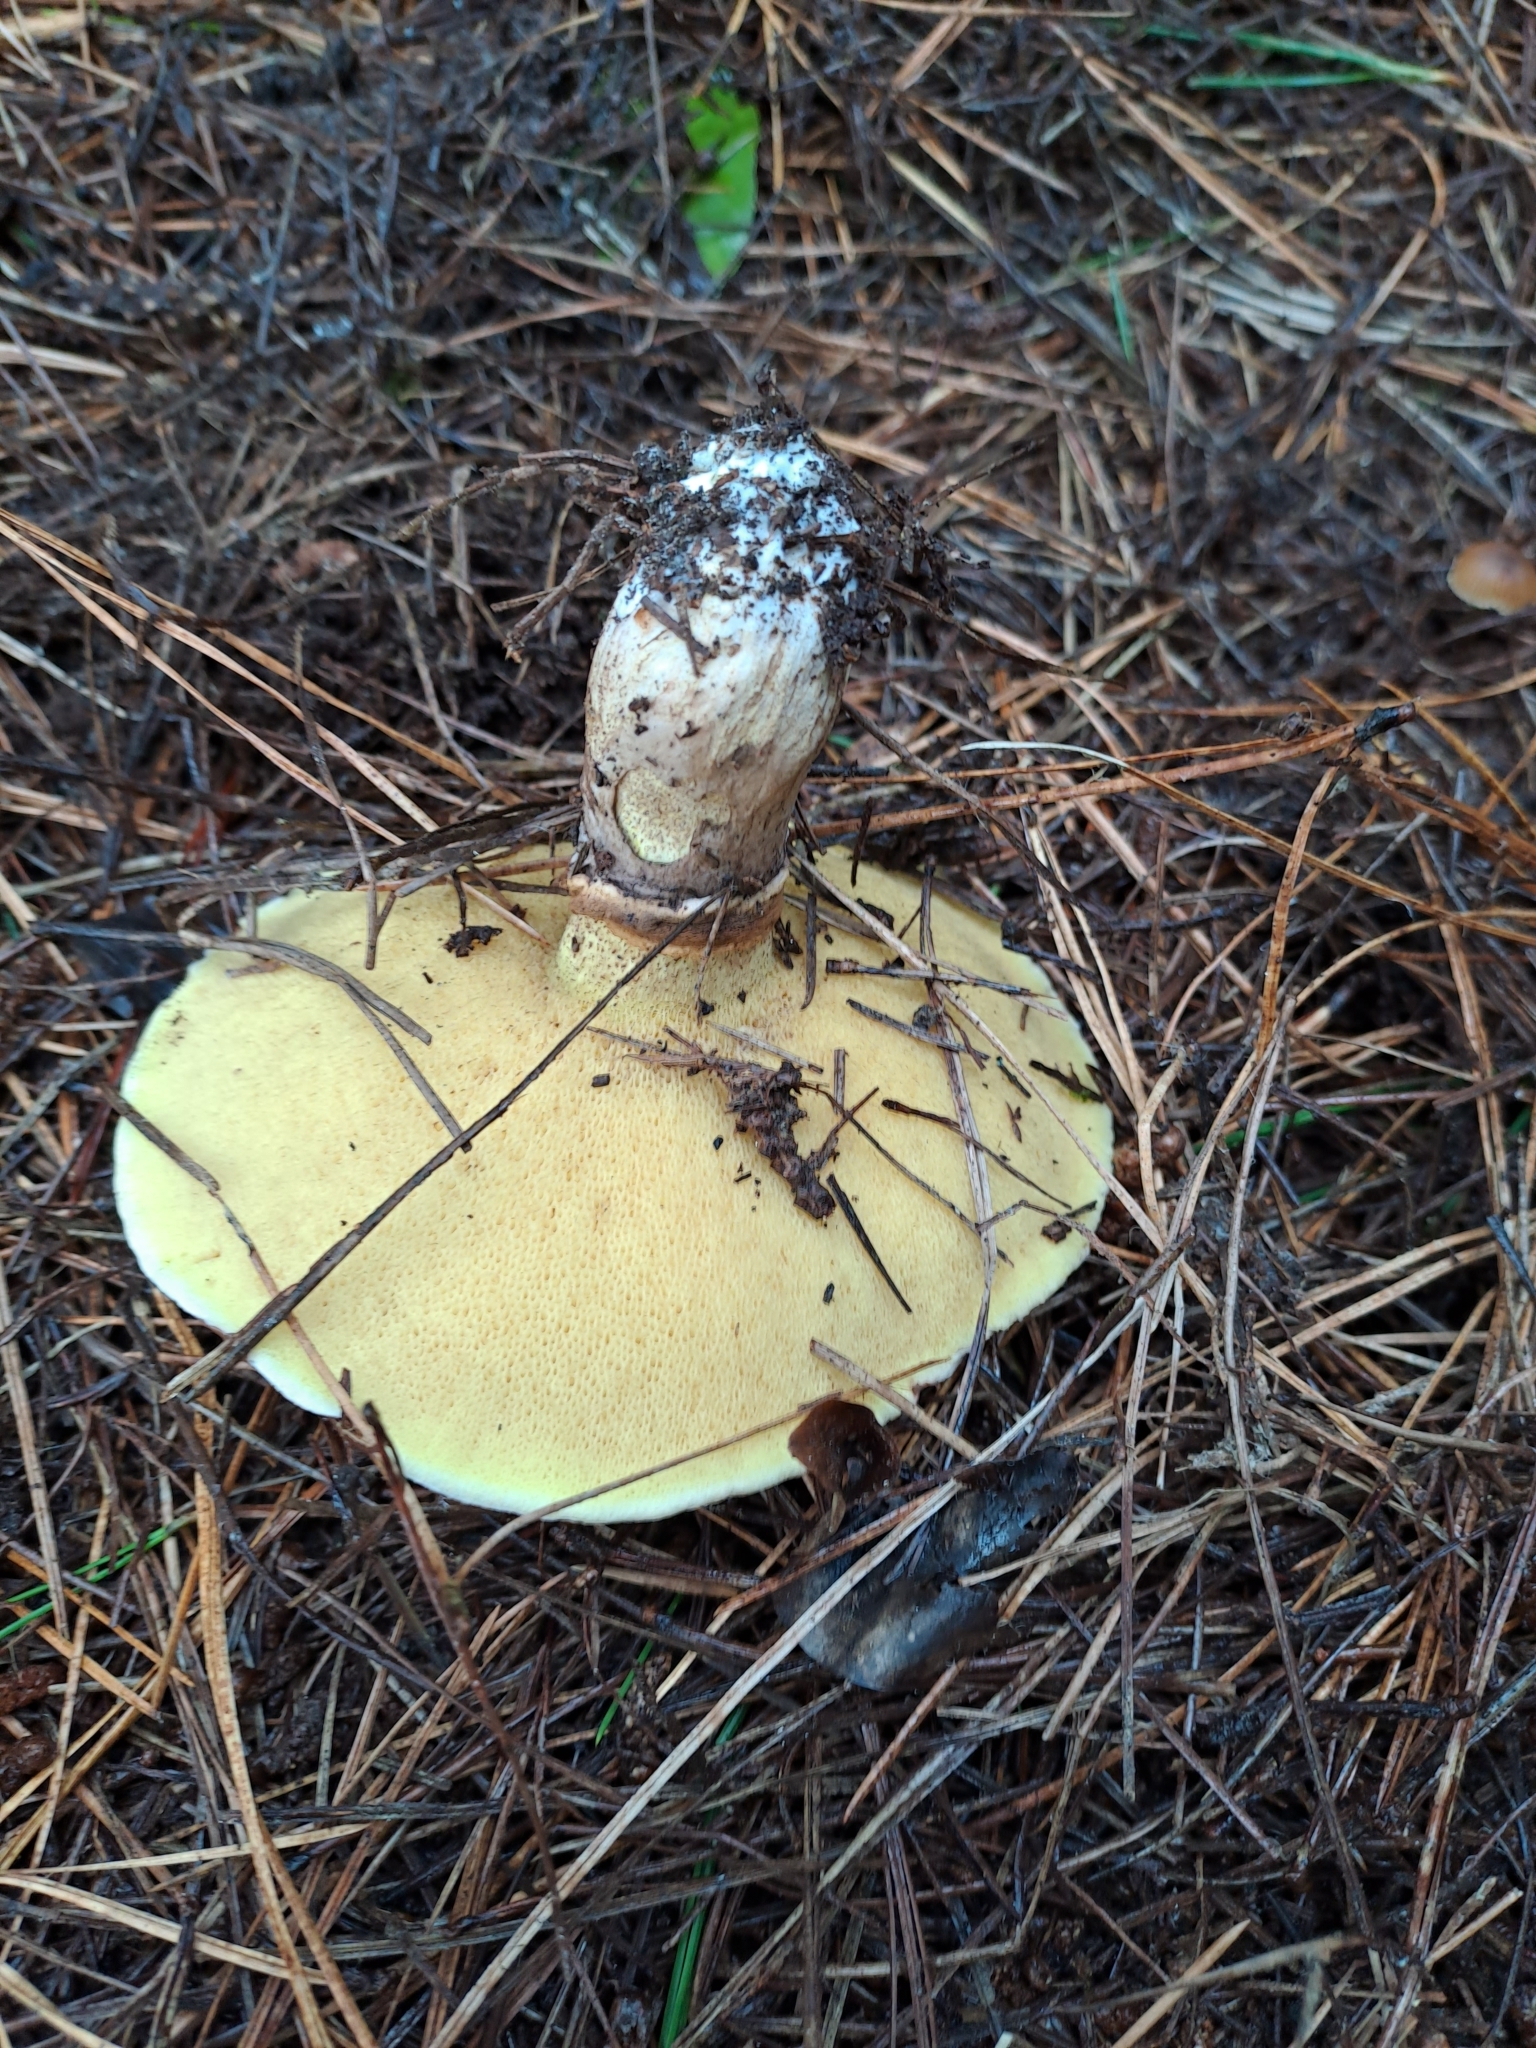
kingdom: Fungi
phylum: Basidiomycota
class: Agaricomycetes
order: Boletales
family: Suillaceae
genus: Suillus
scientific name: Suillus luteus
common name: Slippery jack
